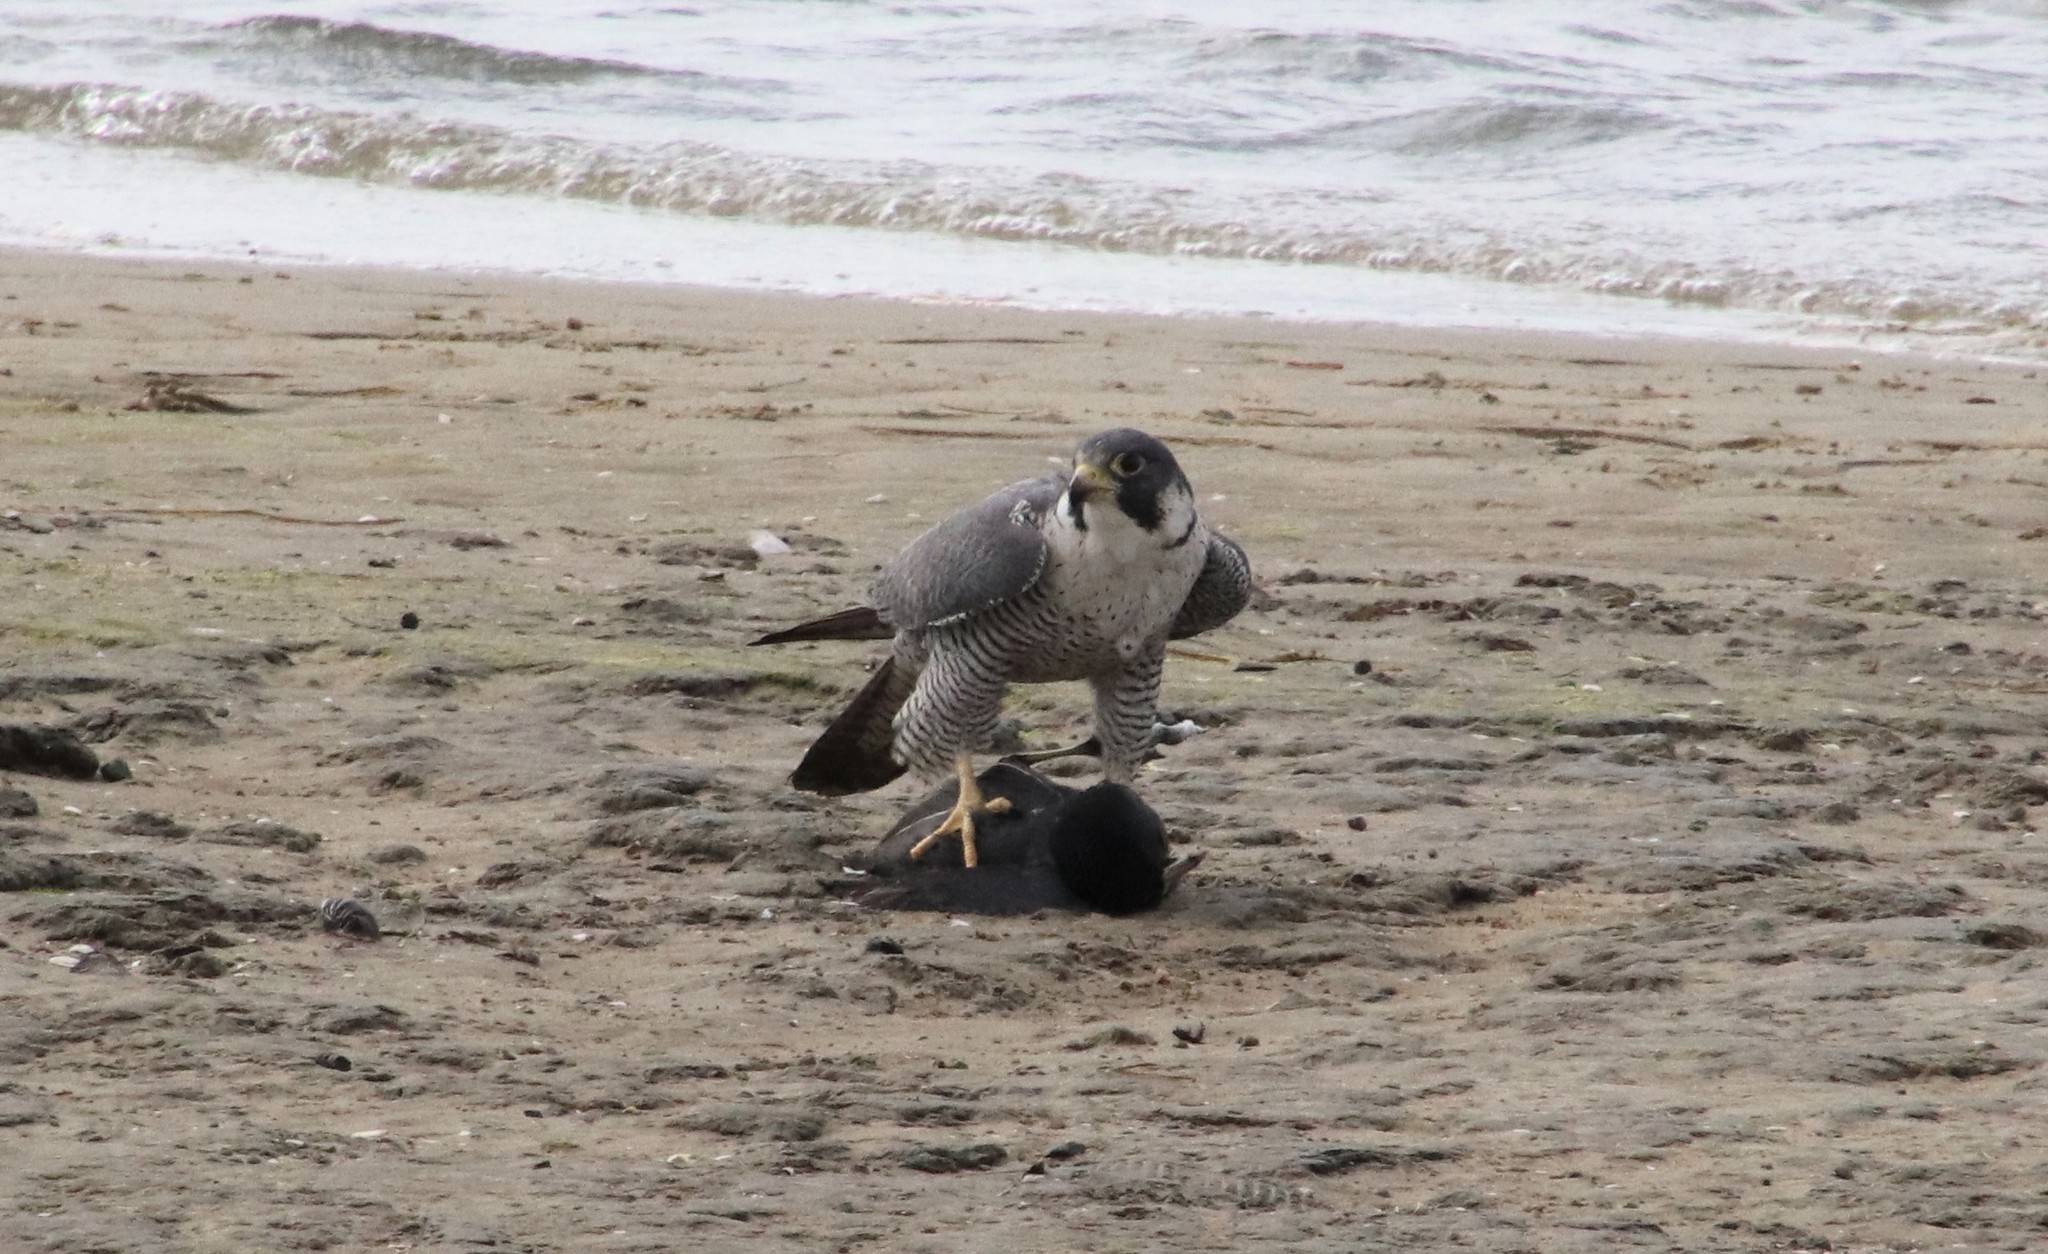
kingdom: Animalia
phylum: Chordata
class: Aves
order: Falconiformes
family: Falconidae
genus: Falco
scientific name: Falco peregrinus
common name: Peregrine falcon
